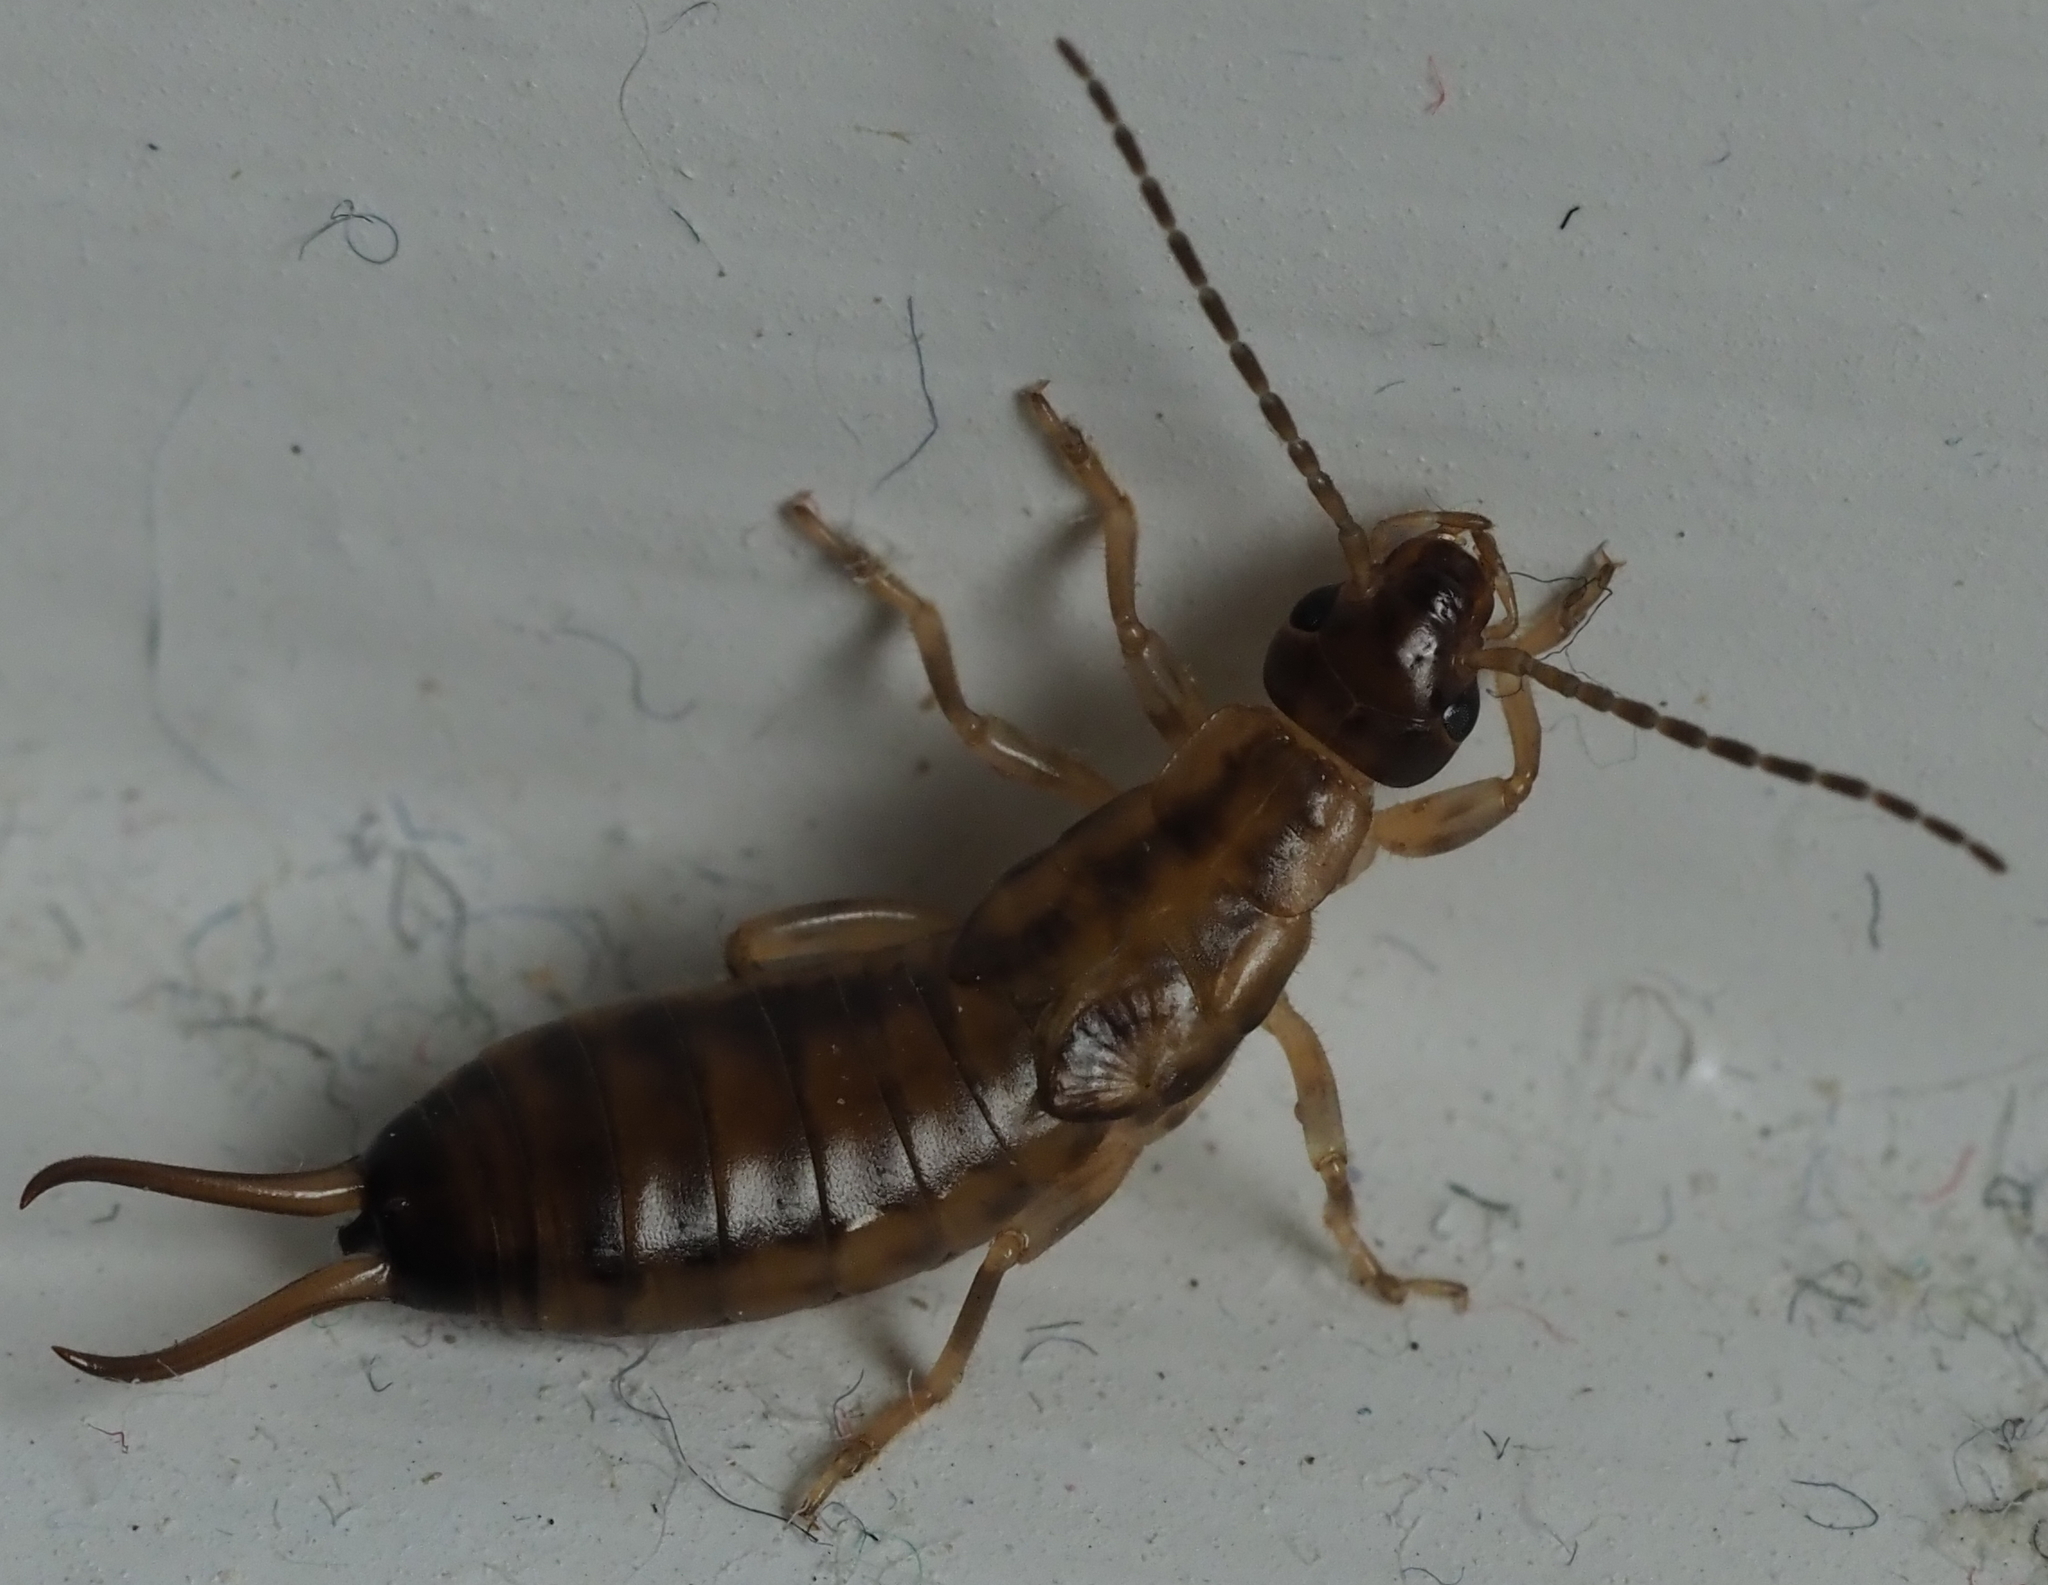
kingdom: Animalia
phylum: Arthropoda
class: Insecta
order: Dermaptera
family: Forficulidae
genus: Forficula
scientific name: Forficula
